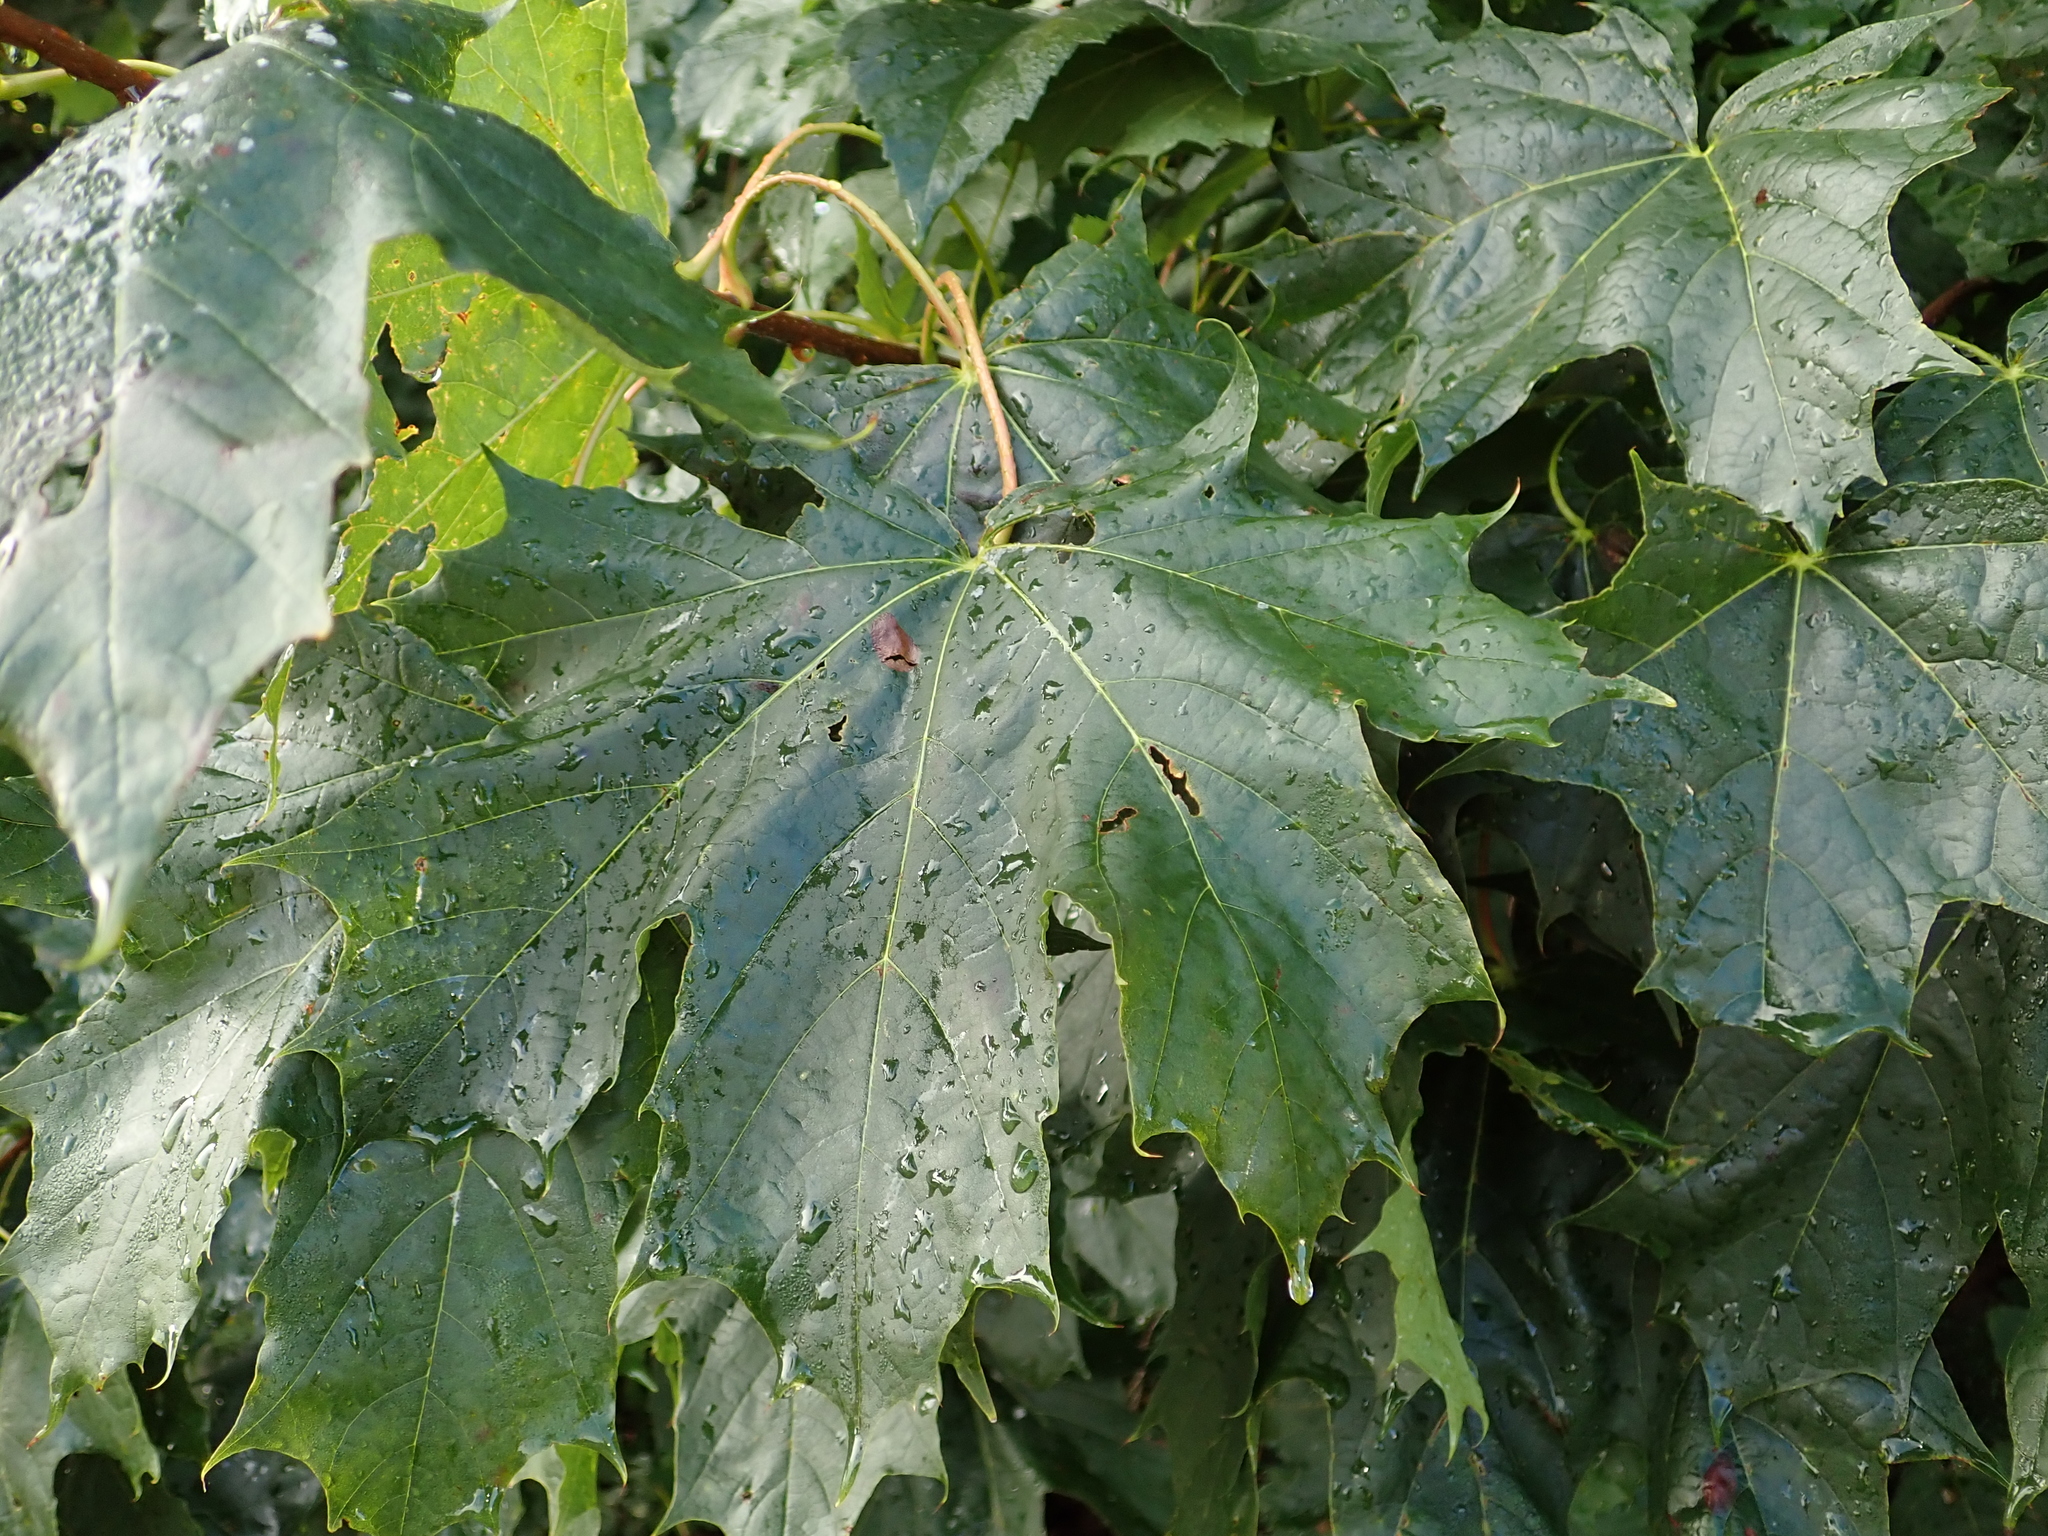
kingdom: Plantae
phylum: Tracheophyta
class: Magnoliopsida
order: Sapindales
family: Sapindaceae
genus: Acer
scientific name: Acer platanoides
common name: Norway maple
